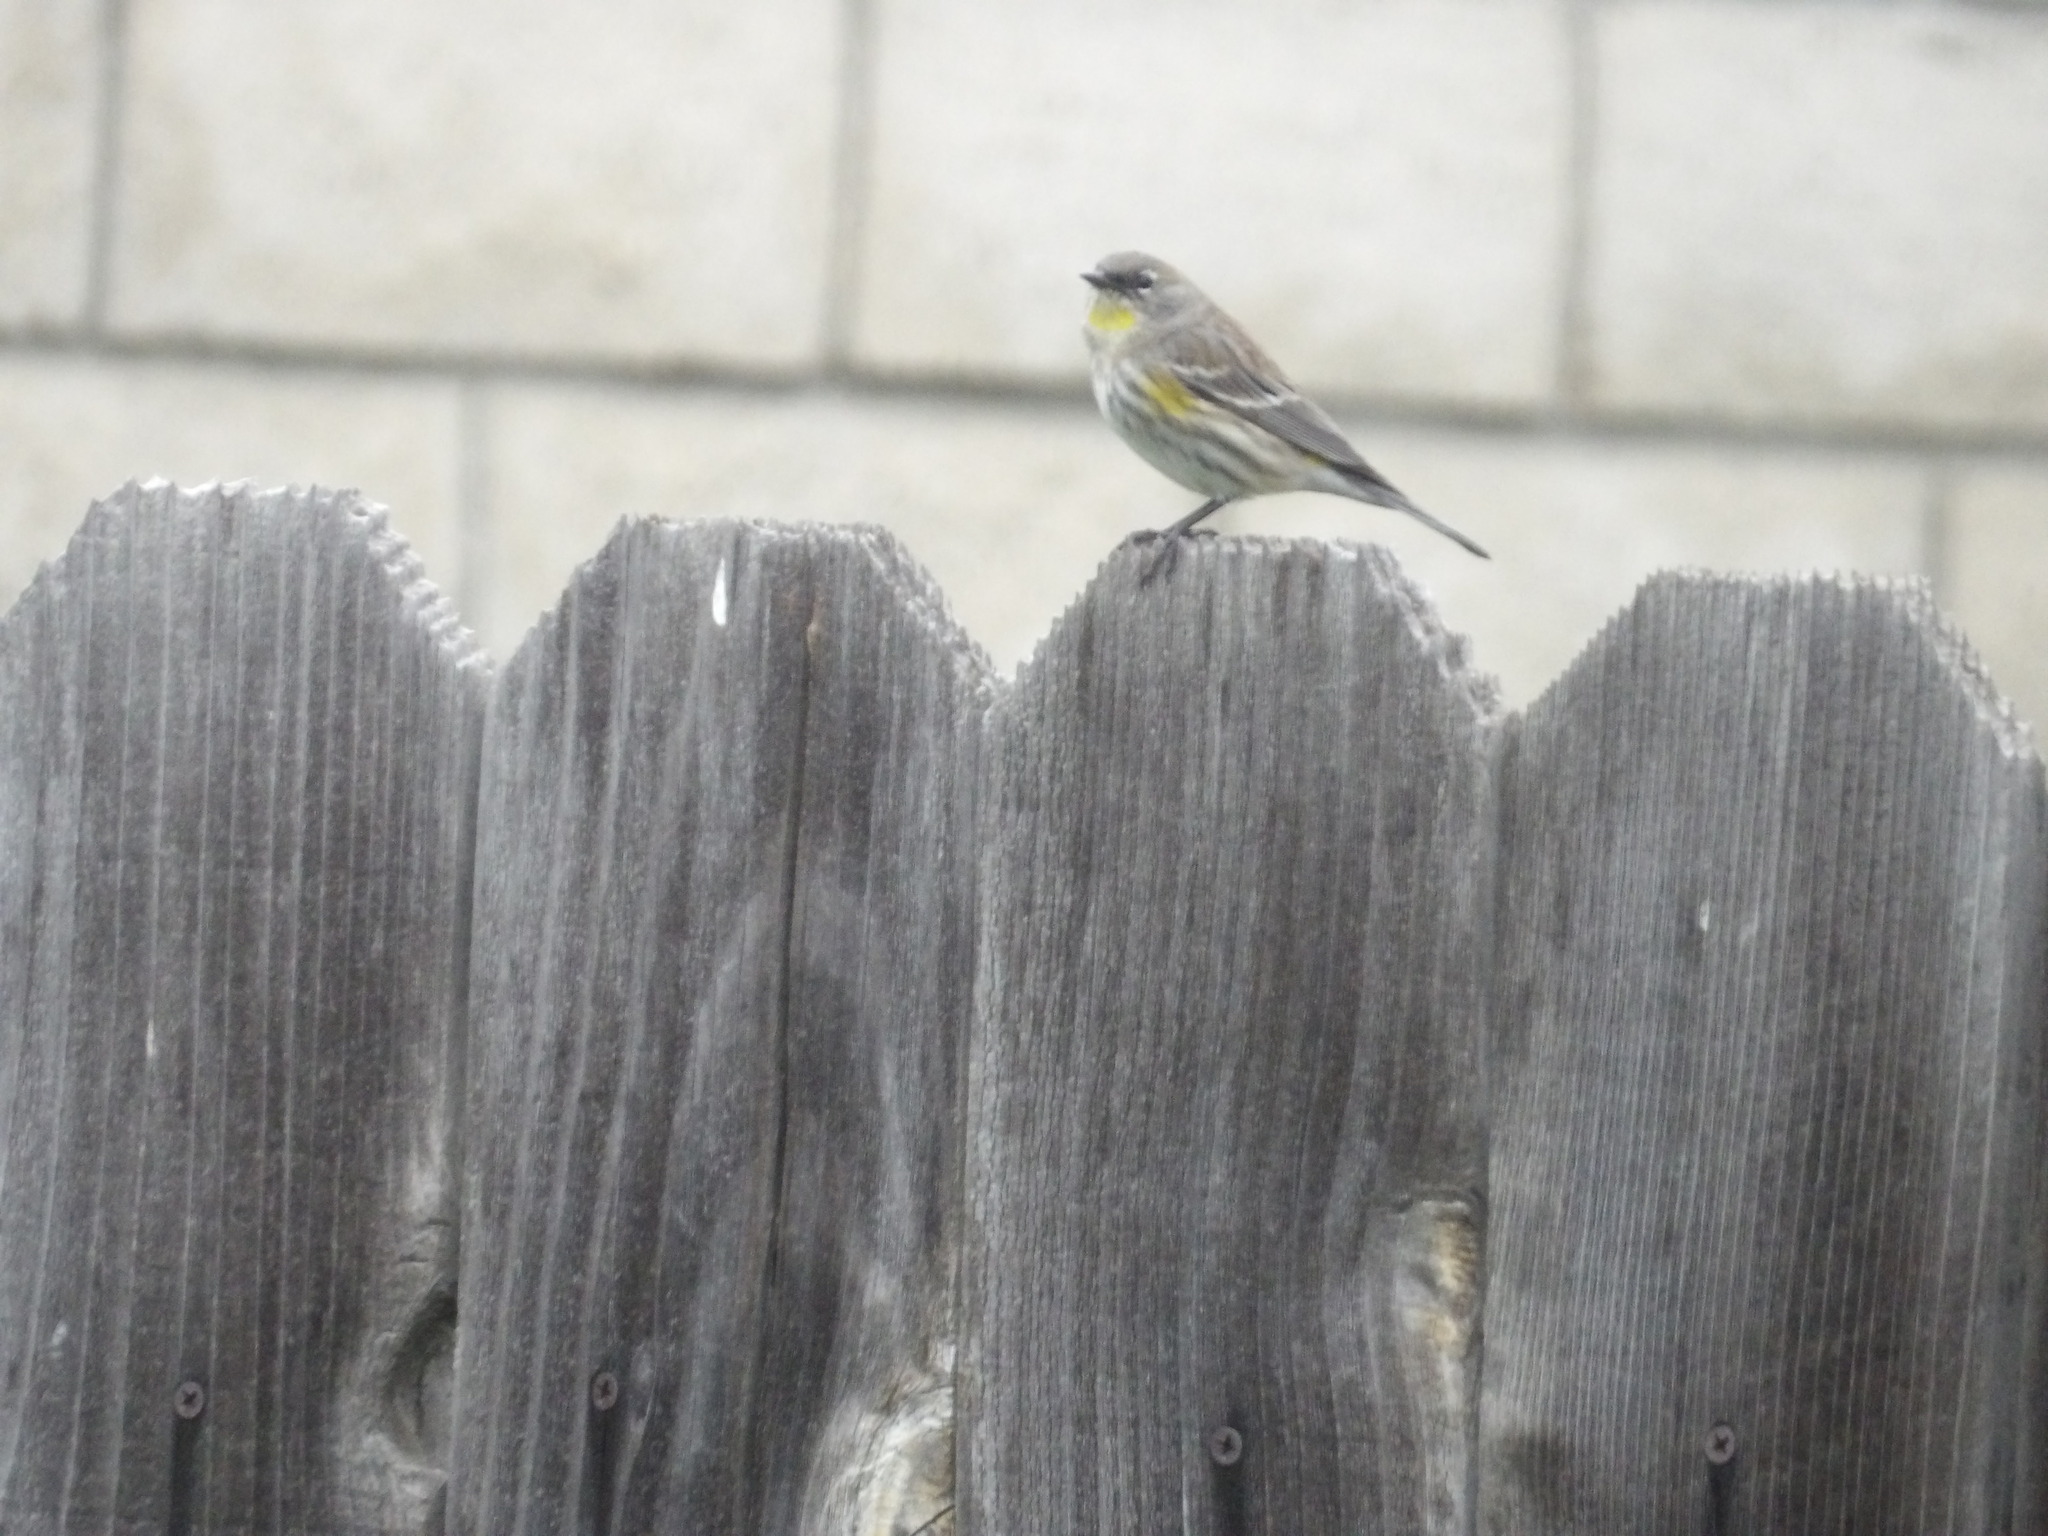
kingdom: Animalia
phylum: Chordata
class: Aves
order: Passeriformes
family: Parulidae
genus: Setophaga
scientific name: Setophaga coronata
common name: Myrtle warbler
